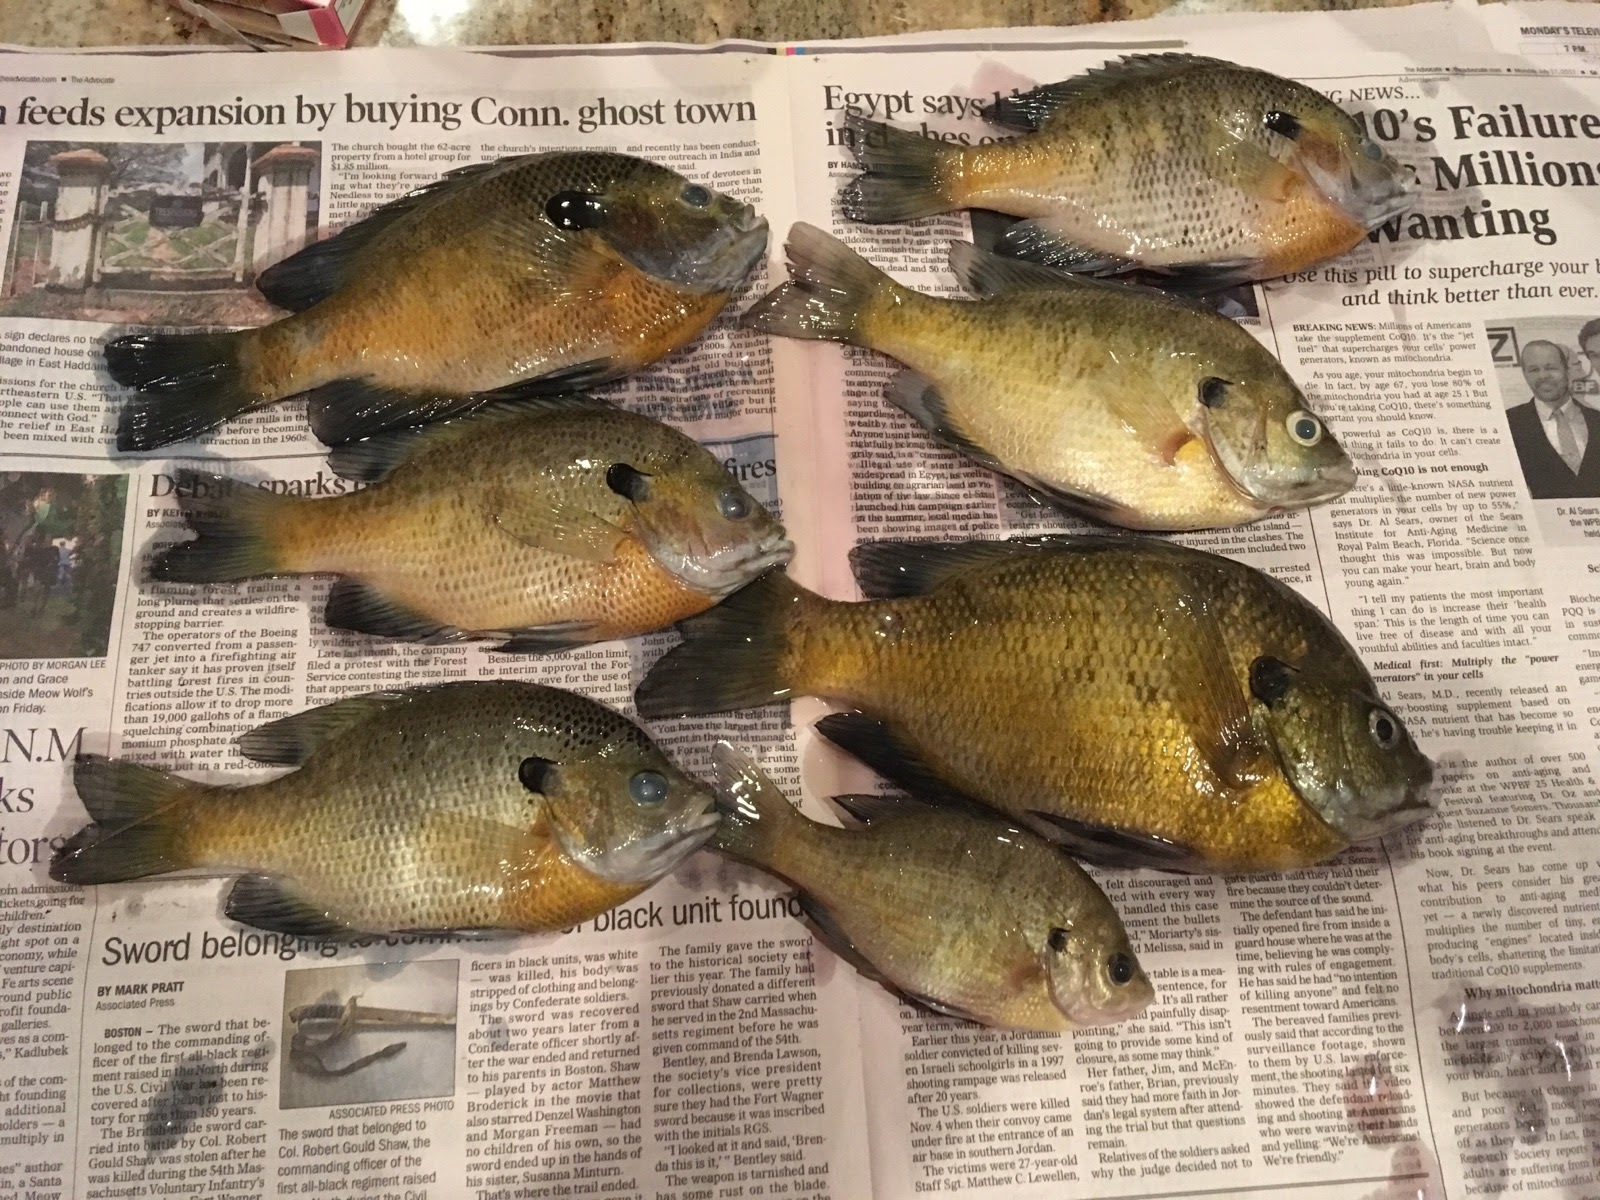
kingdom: Animalia
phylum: Chordata
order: Perciformes
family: Centrarchidae
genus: Lepomis
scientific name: Lepomis macrochirus
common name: Bluegill
